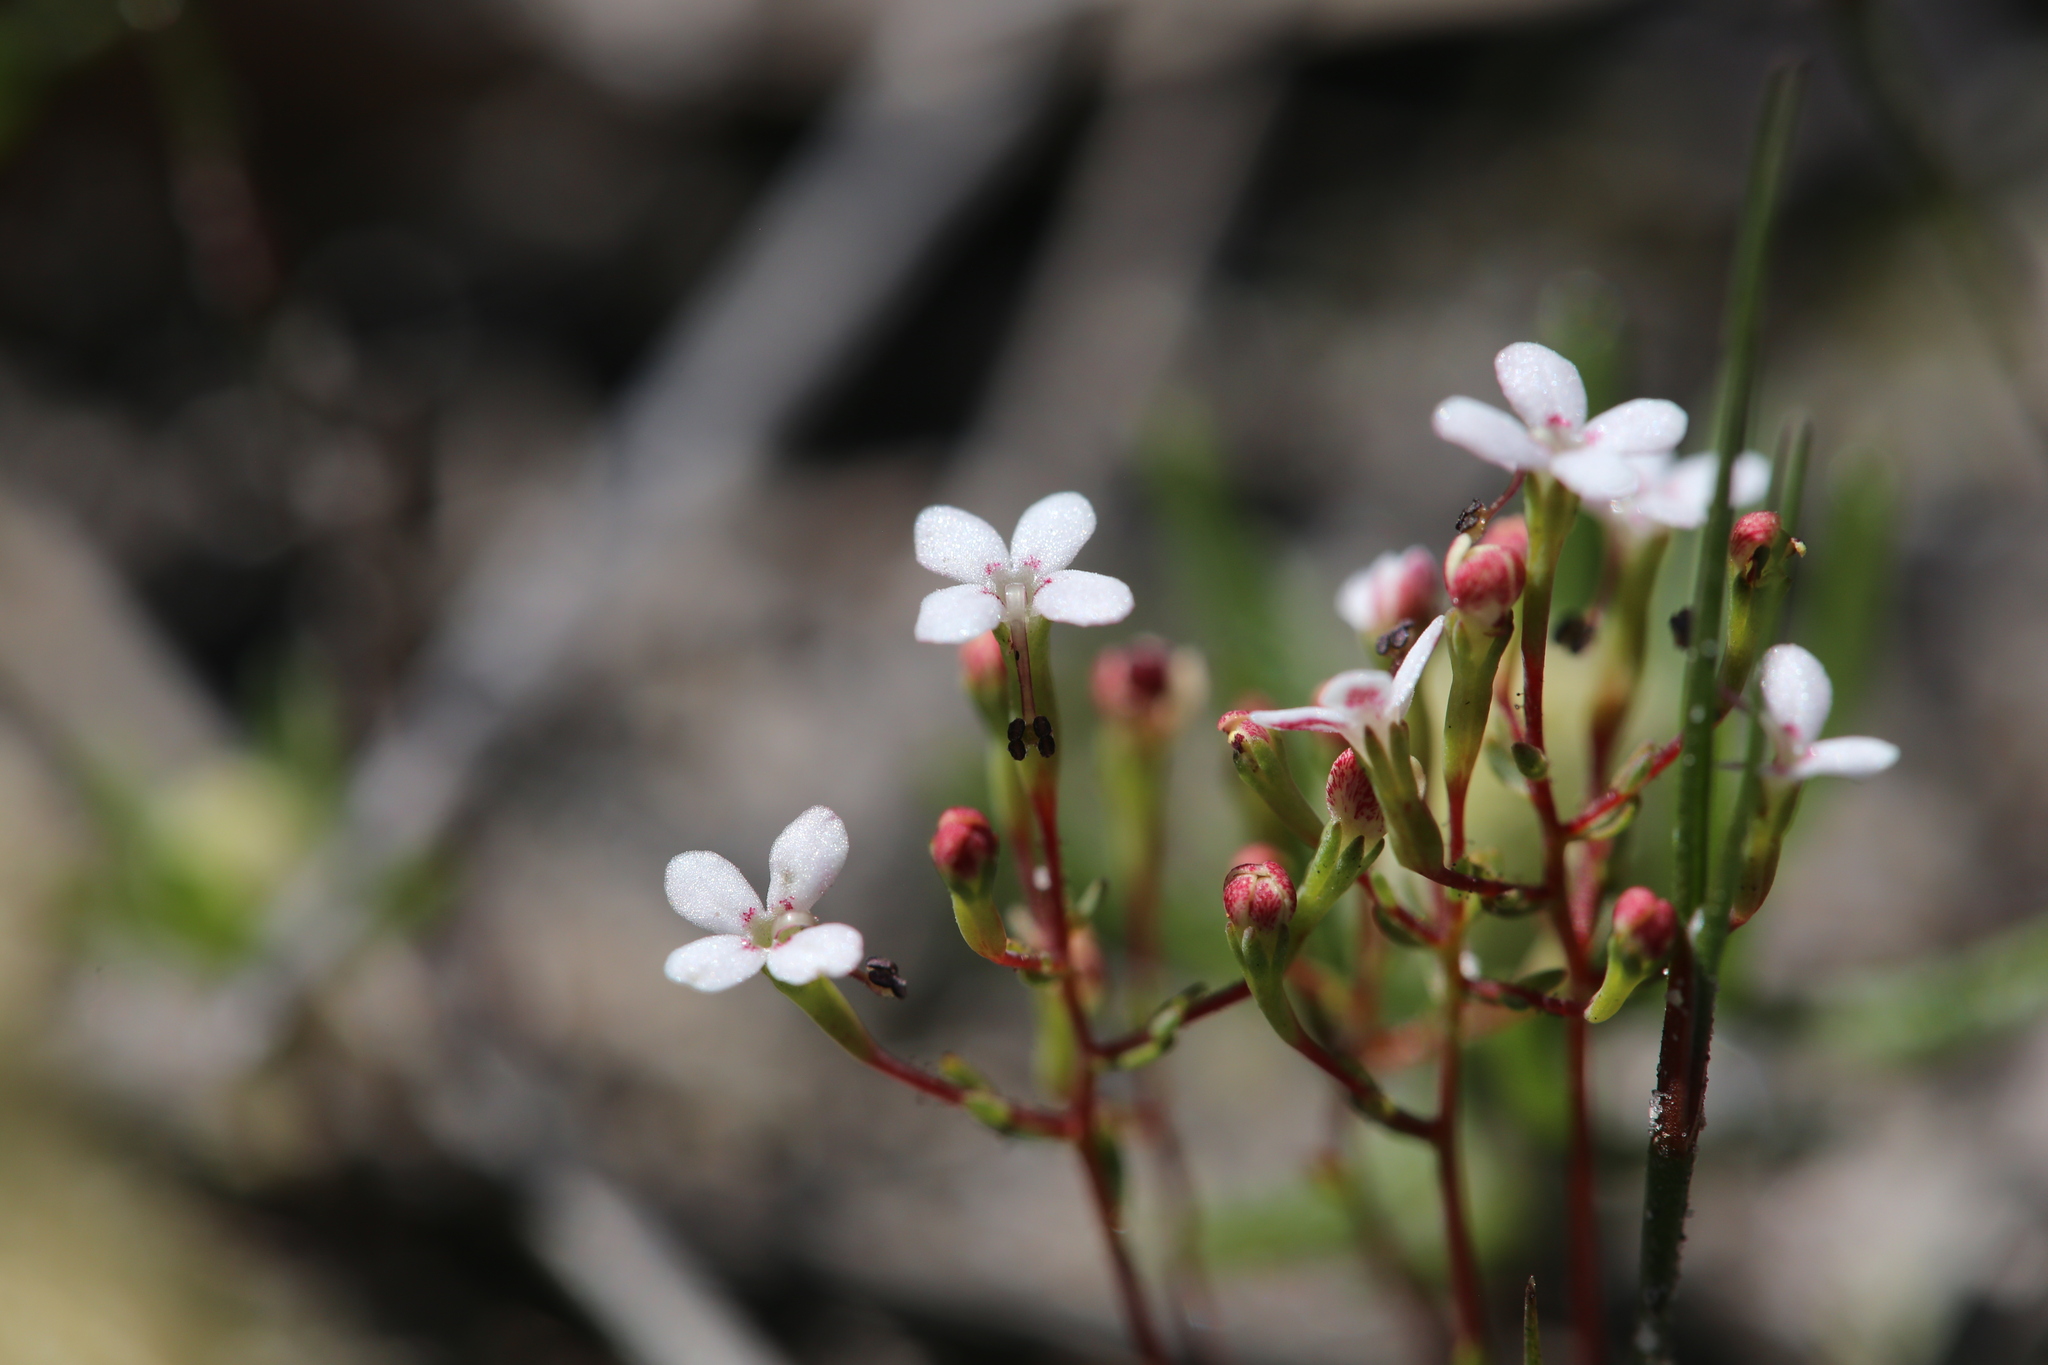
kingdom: Plantae
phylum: Tracheophyta
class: Magnoliopsida
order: Asterales
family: Stylidiaceae
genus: Stylidium
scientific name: Stylidium pulchellum
